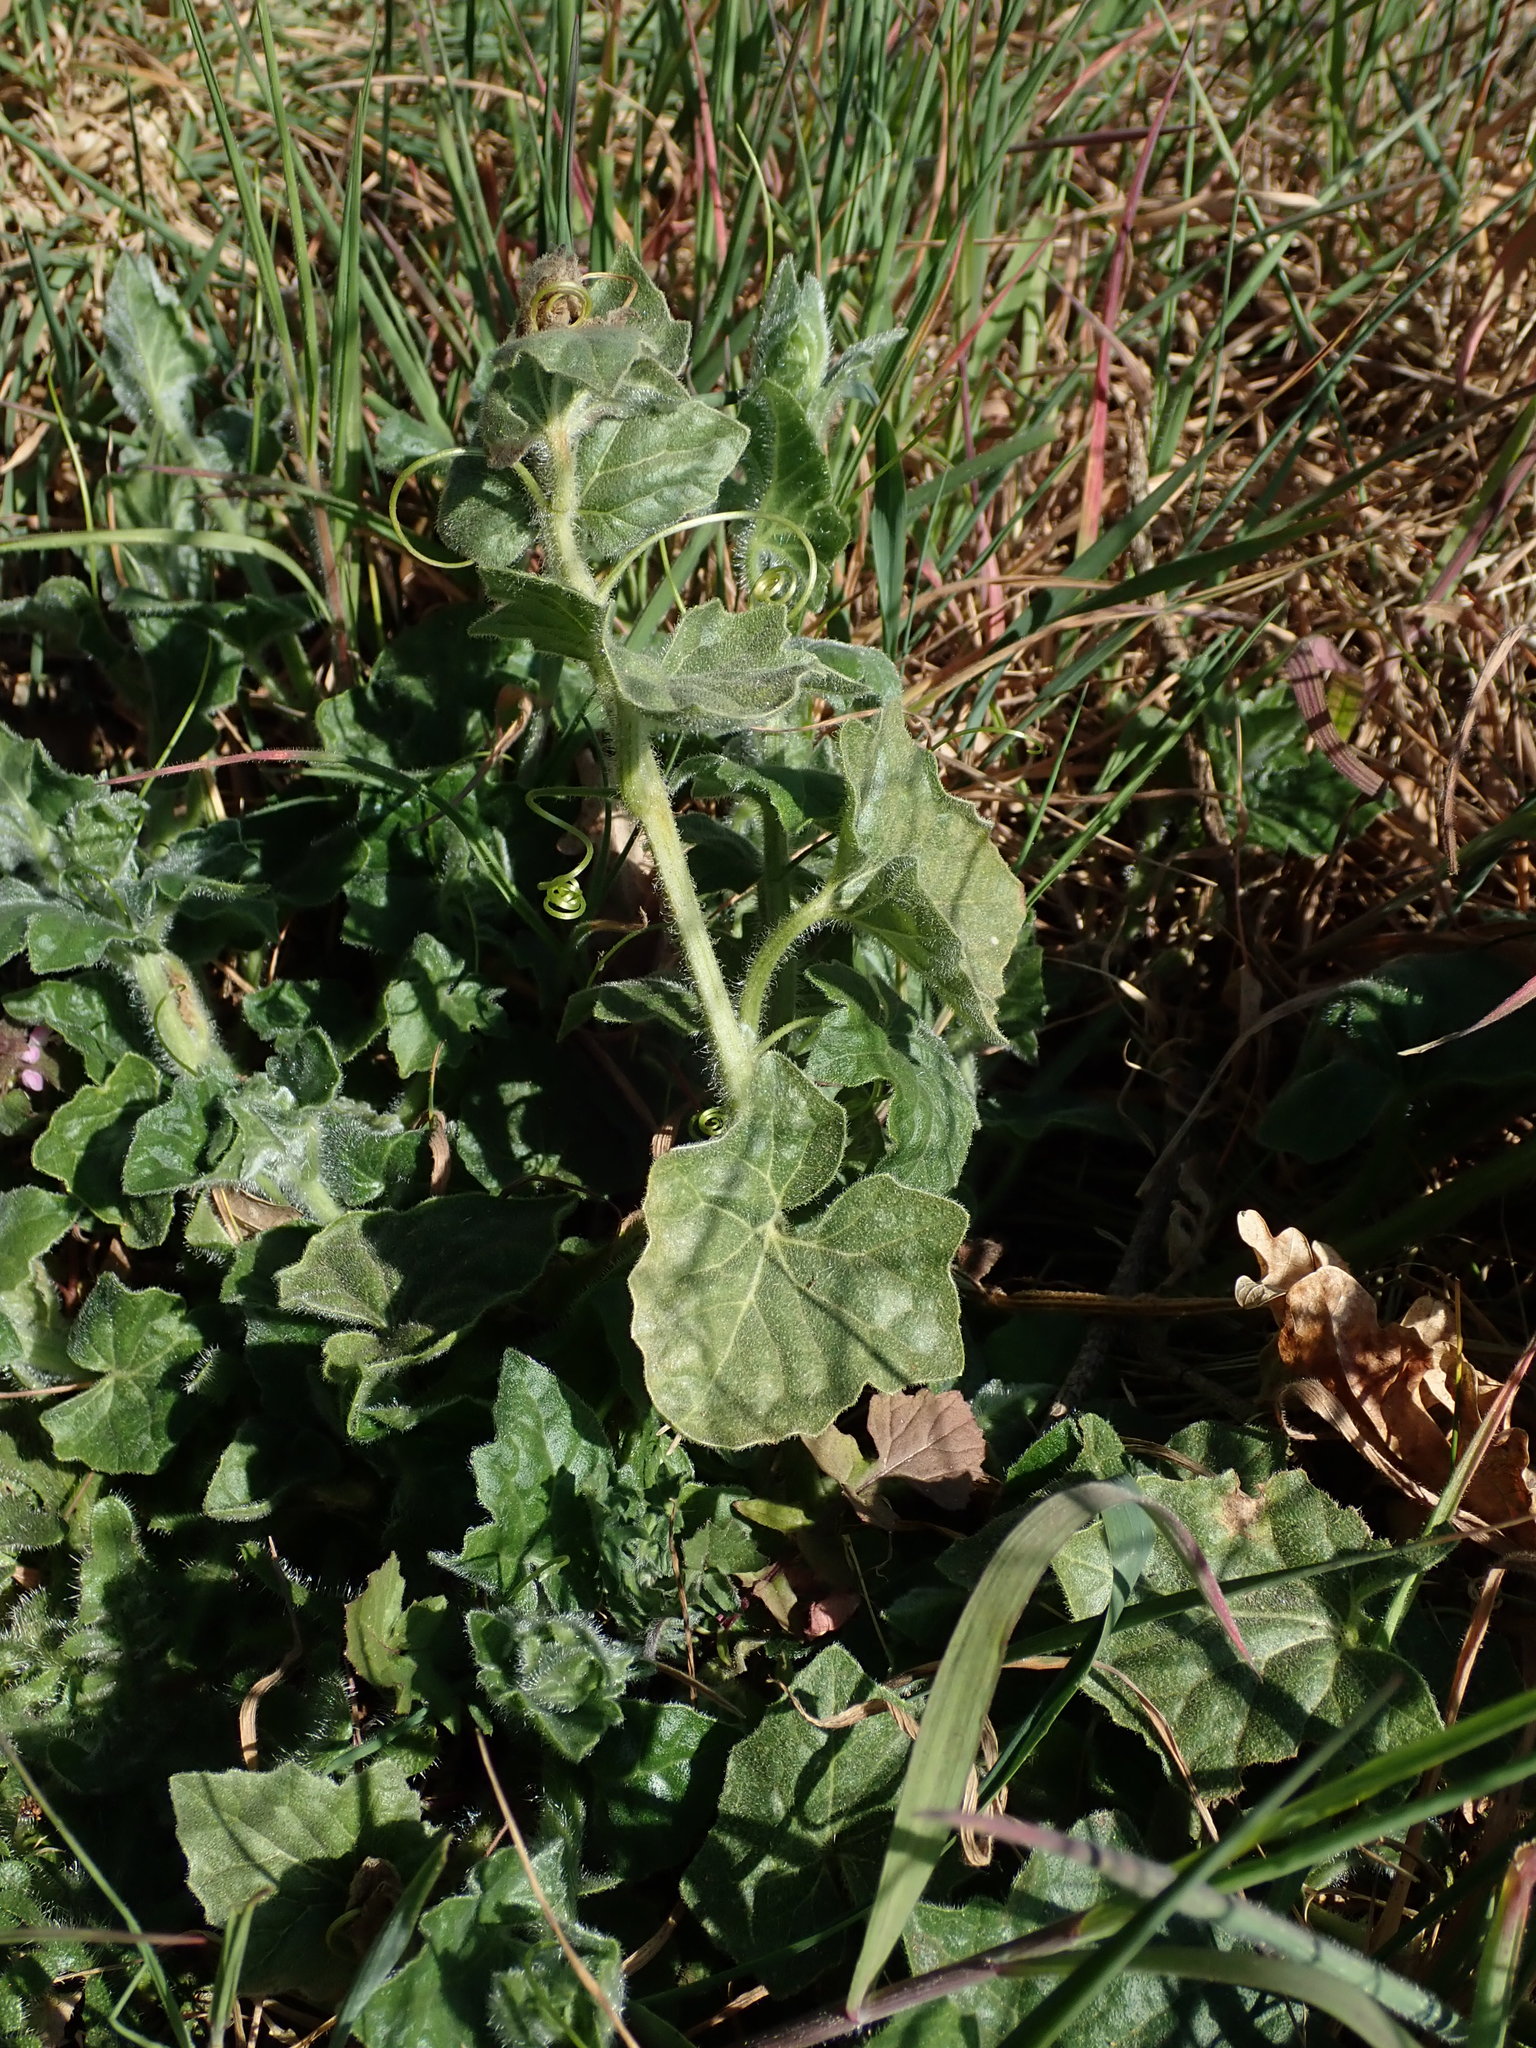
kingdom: Plantae
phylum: Tracheophyta
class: Magnoliopsida
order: Cucurbitales
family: Cucurbitaceae
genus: Bryonia
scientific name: Bryonia cretica
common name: Cretan bryony
